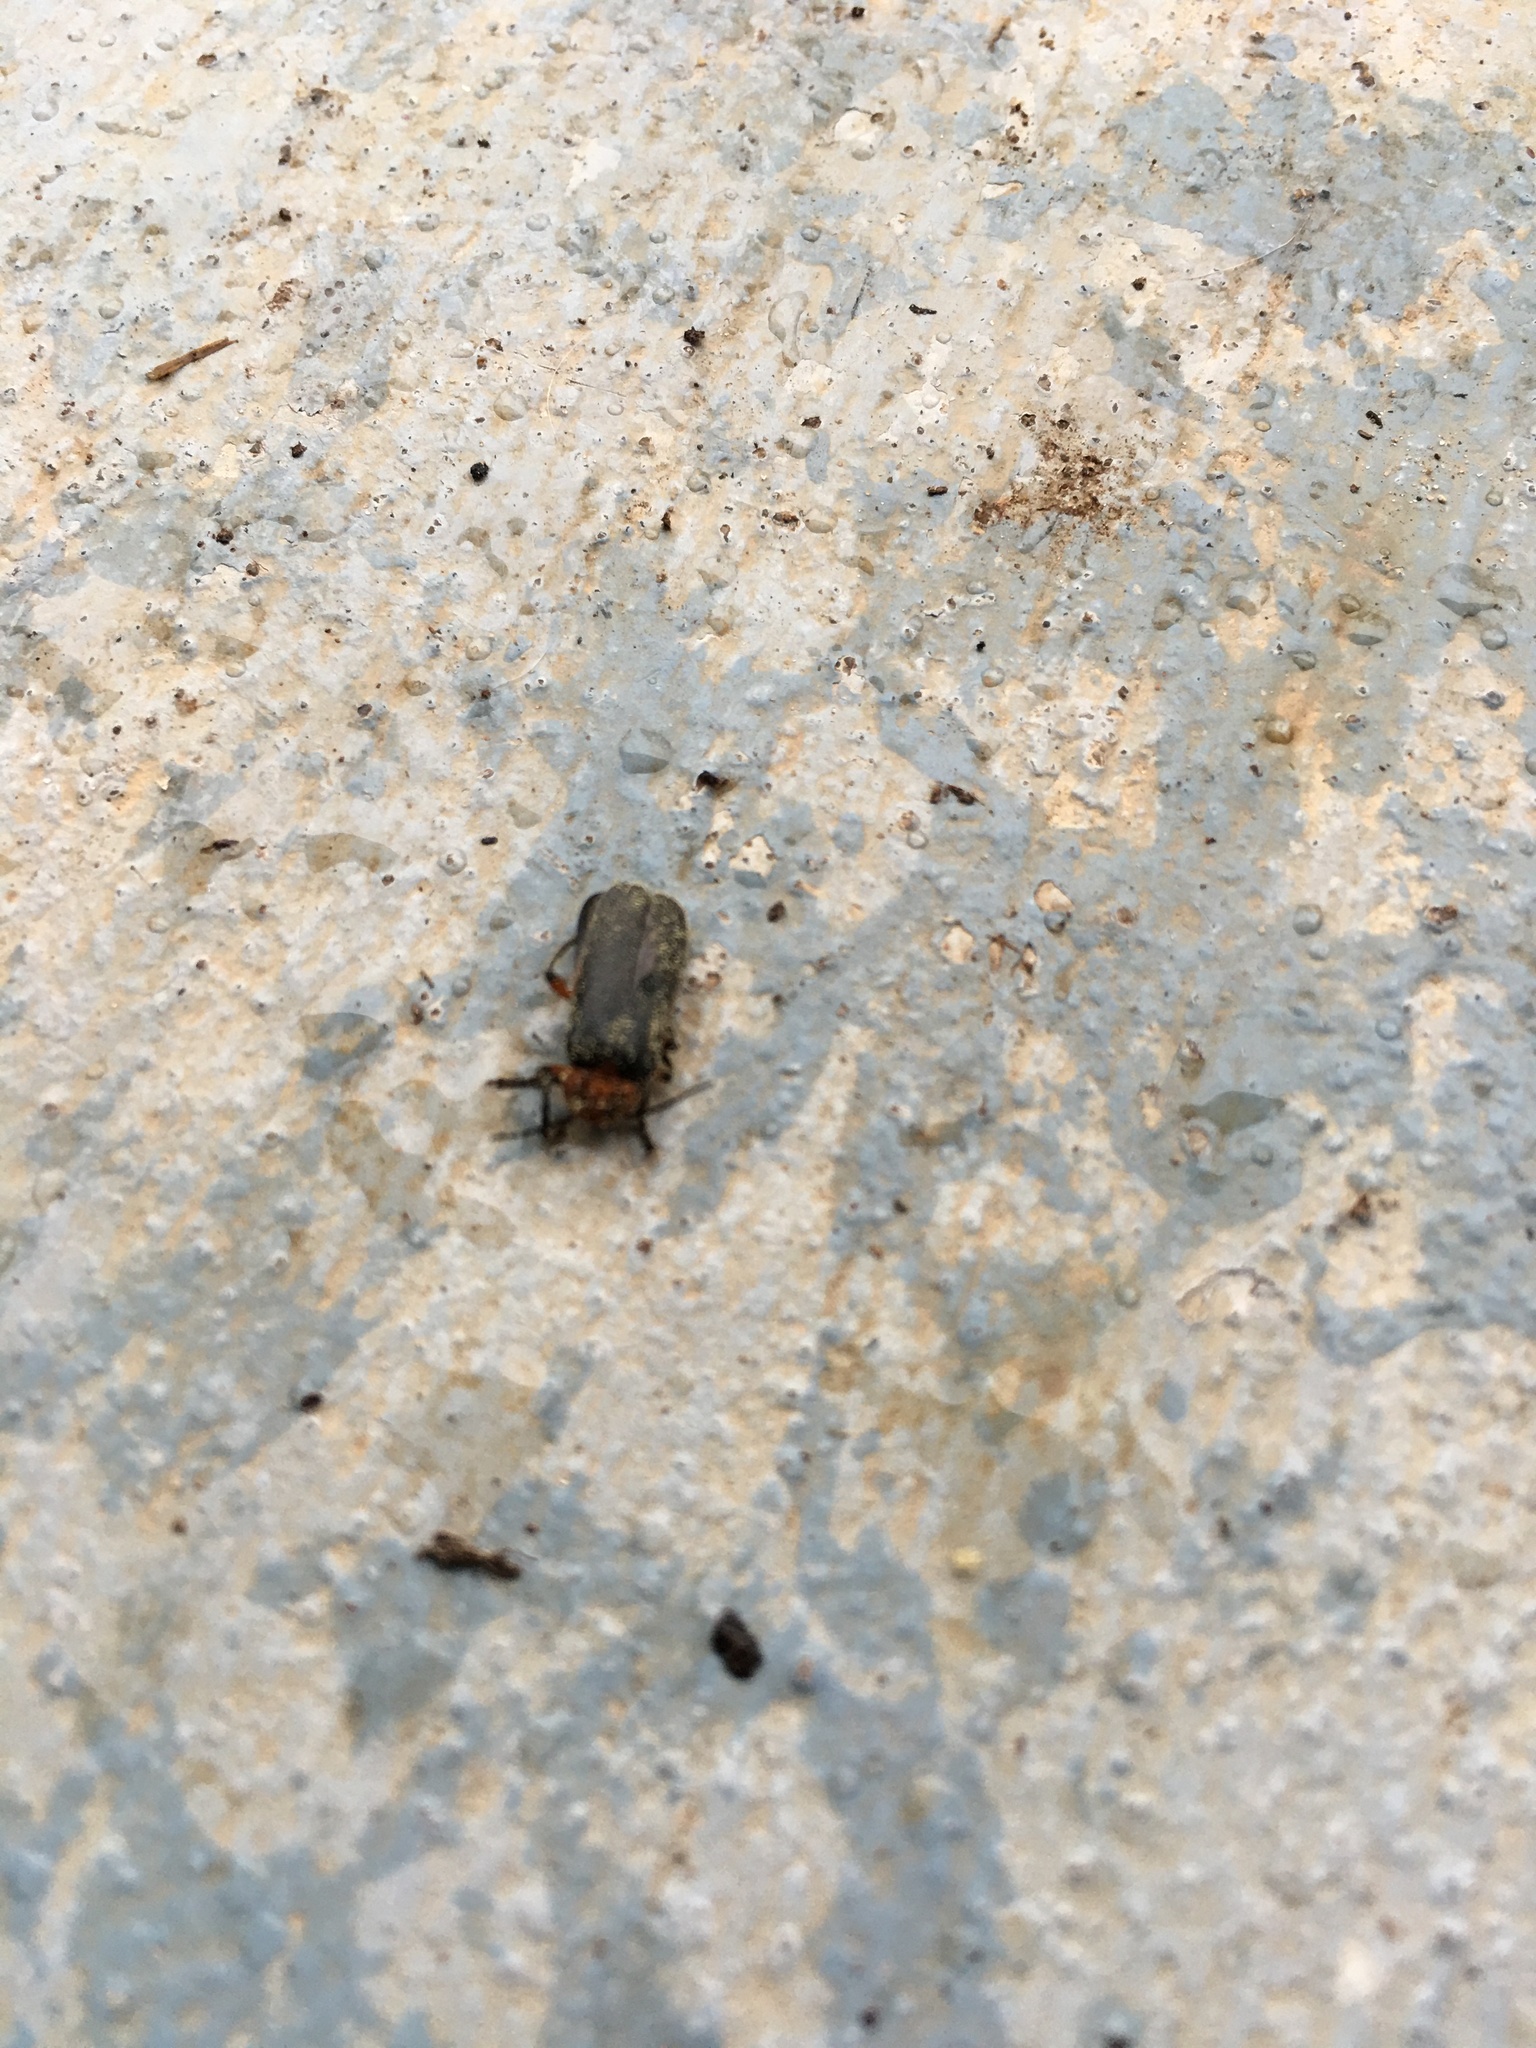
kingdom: Animalia
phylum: Arthropoda
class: Insecta
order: Coleoptera
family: Cantharidae
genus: Atalantycha
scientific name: Atalantycha bilineata
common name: Two-lined leatherwing
